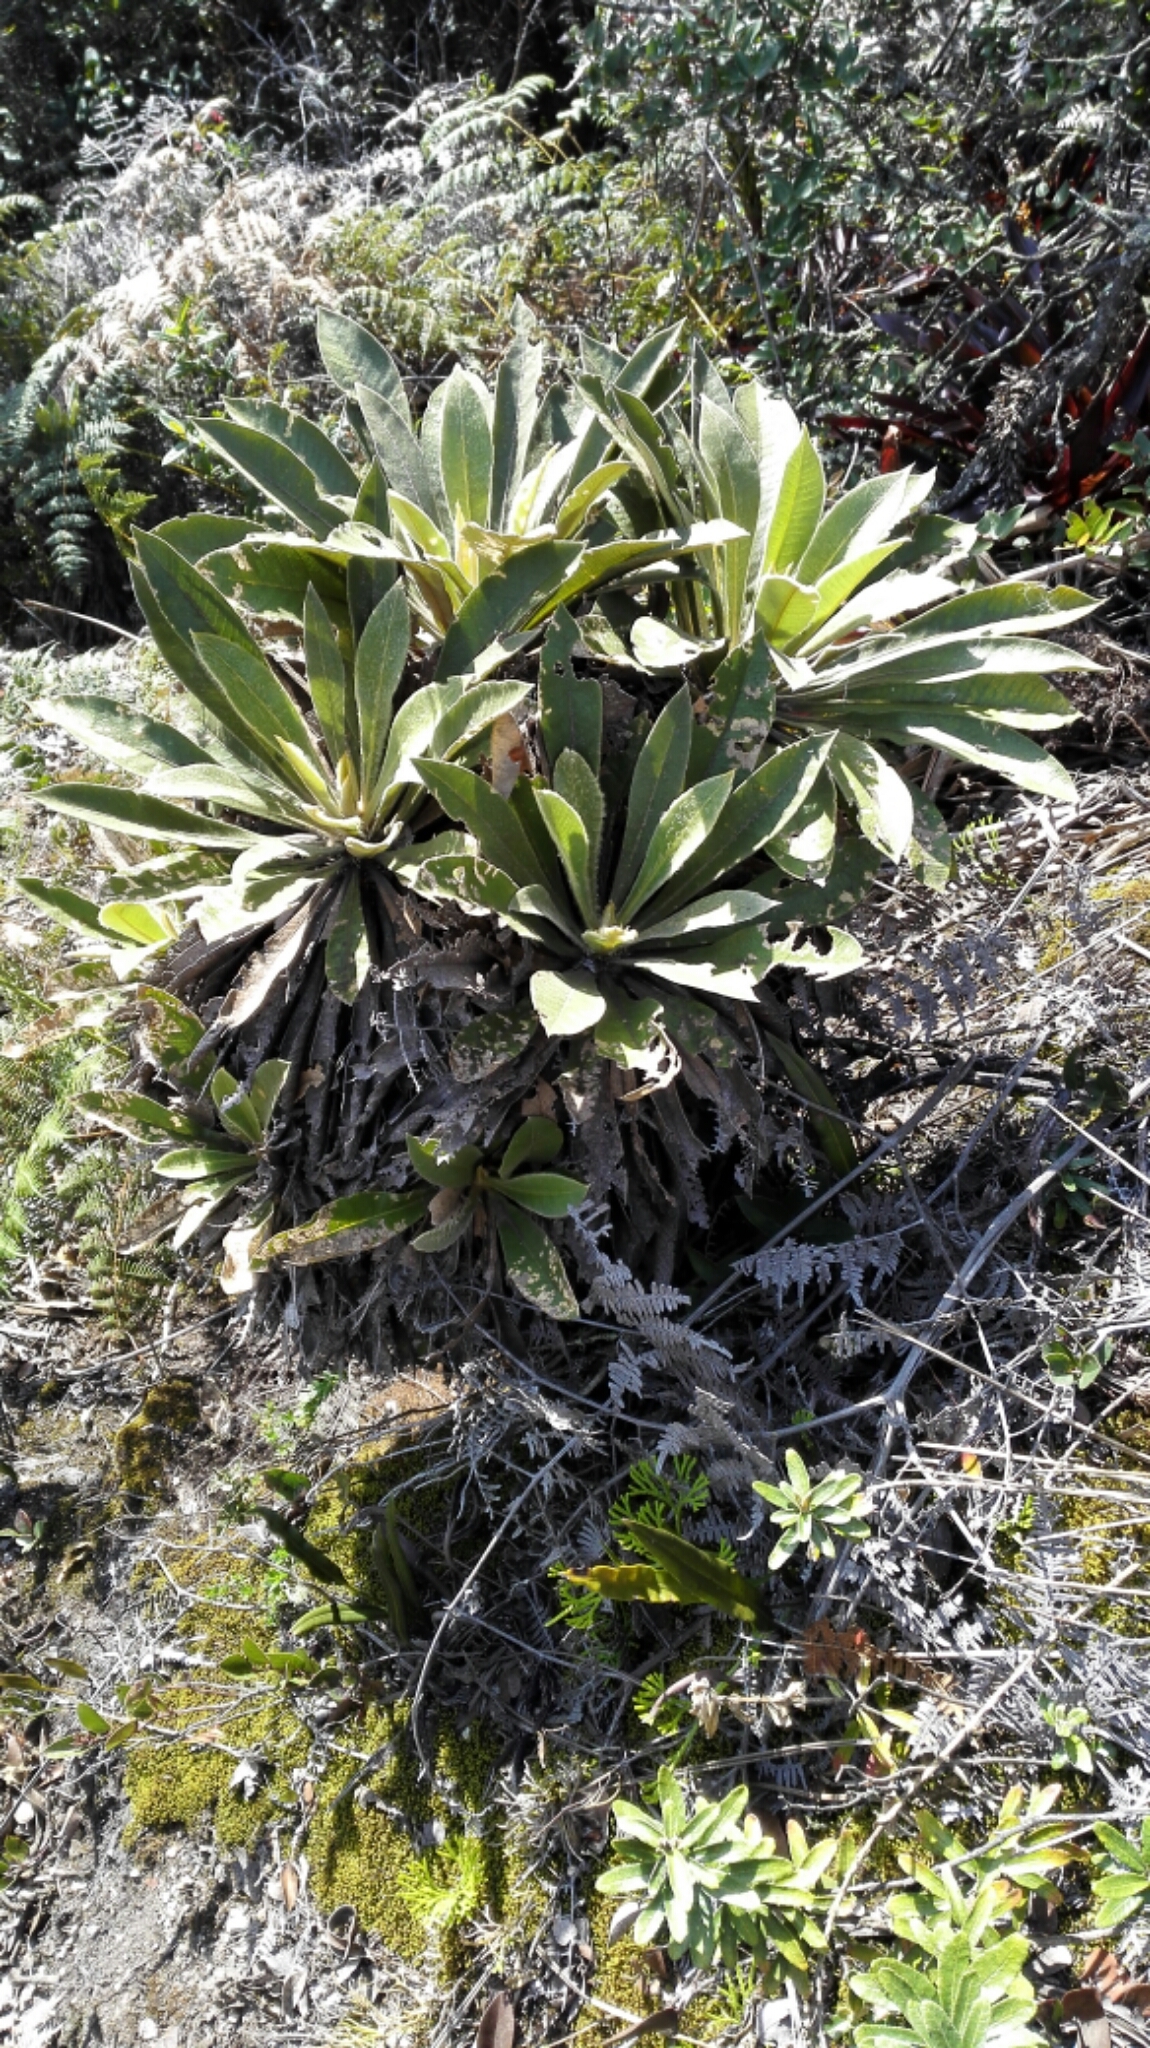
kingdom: Plantae
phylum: Tracheophyta
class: Magnoliopsida
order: Asterales
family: Asteraceae
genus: Espeletia
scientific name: Espeletia corymbosa
